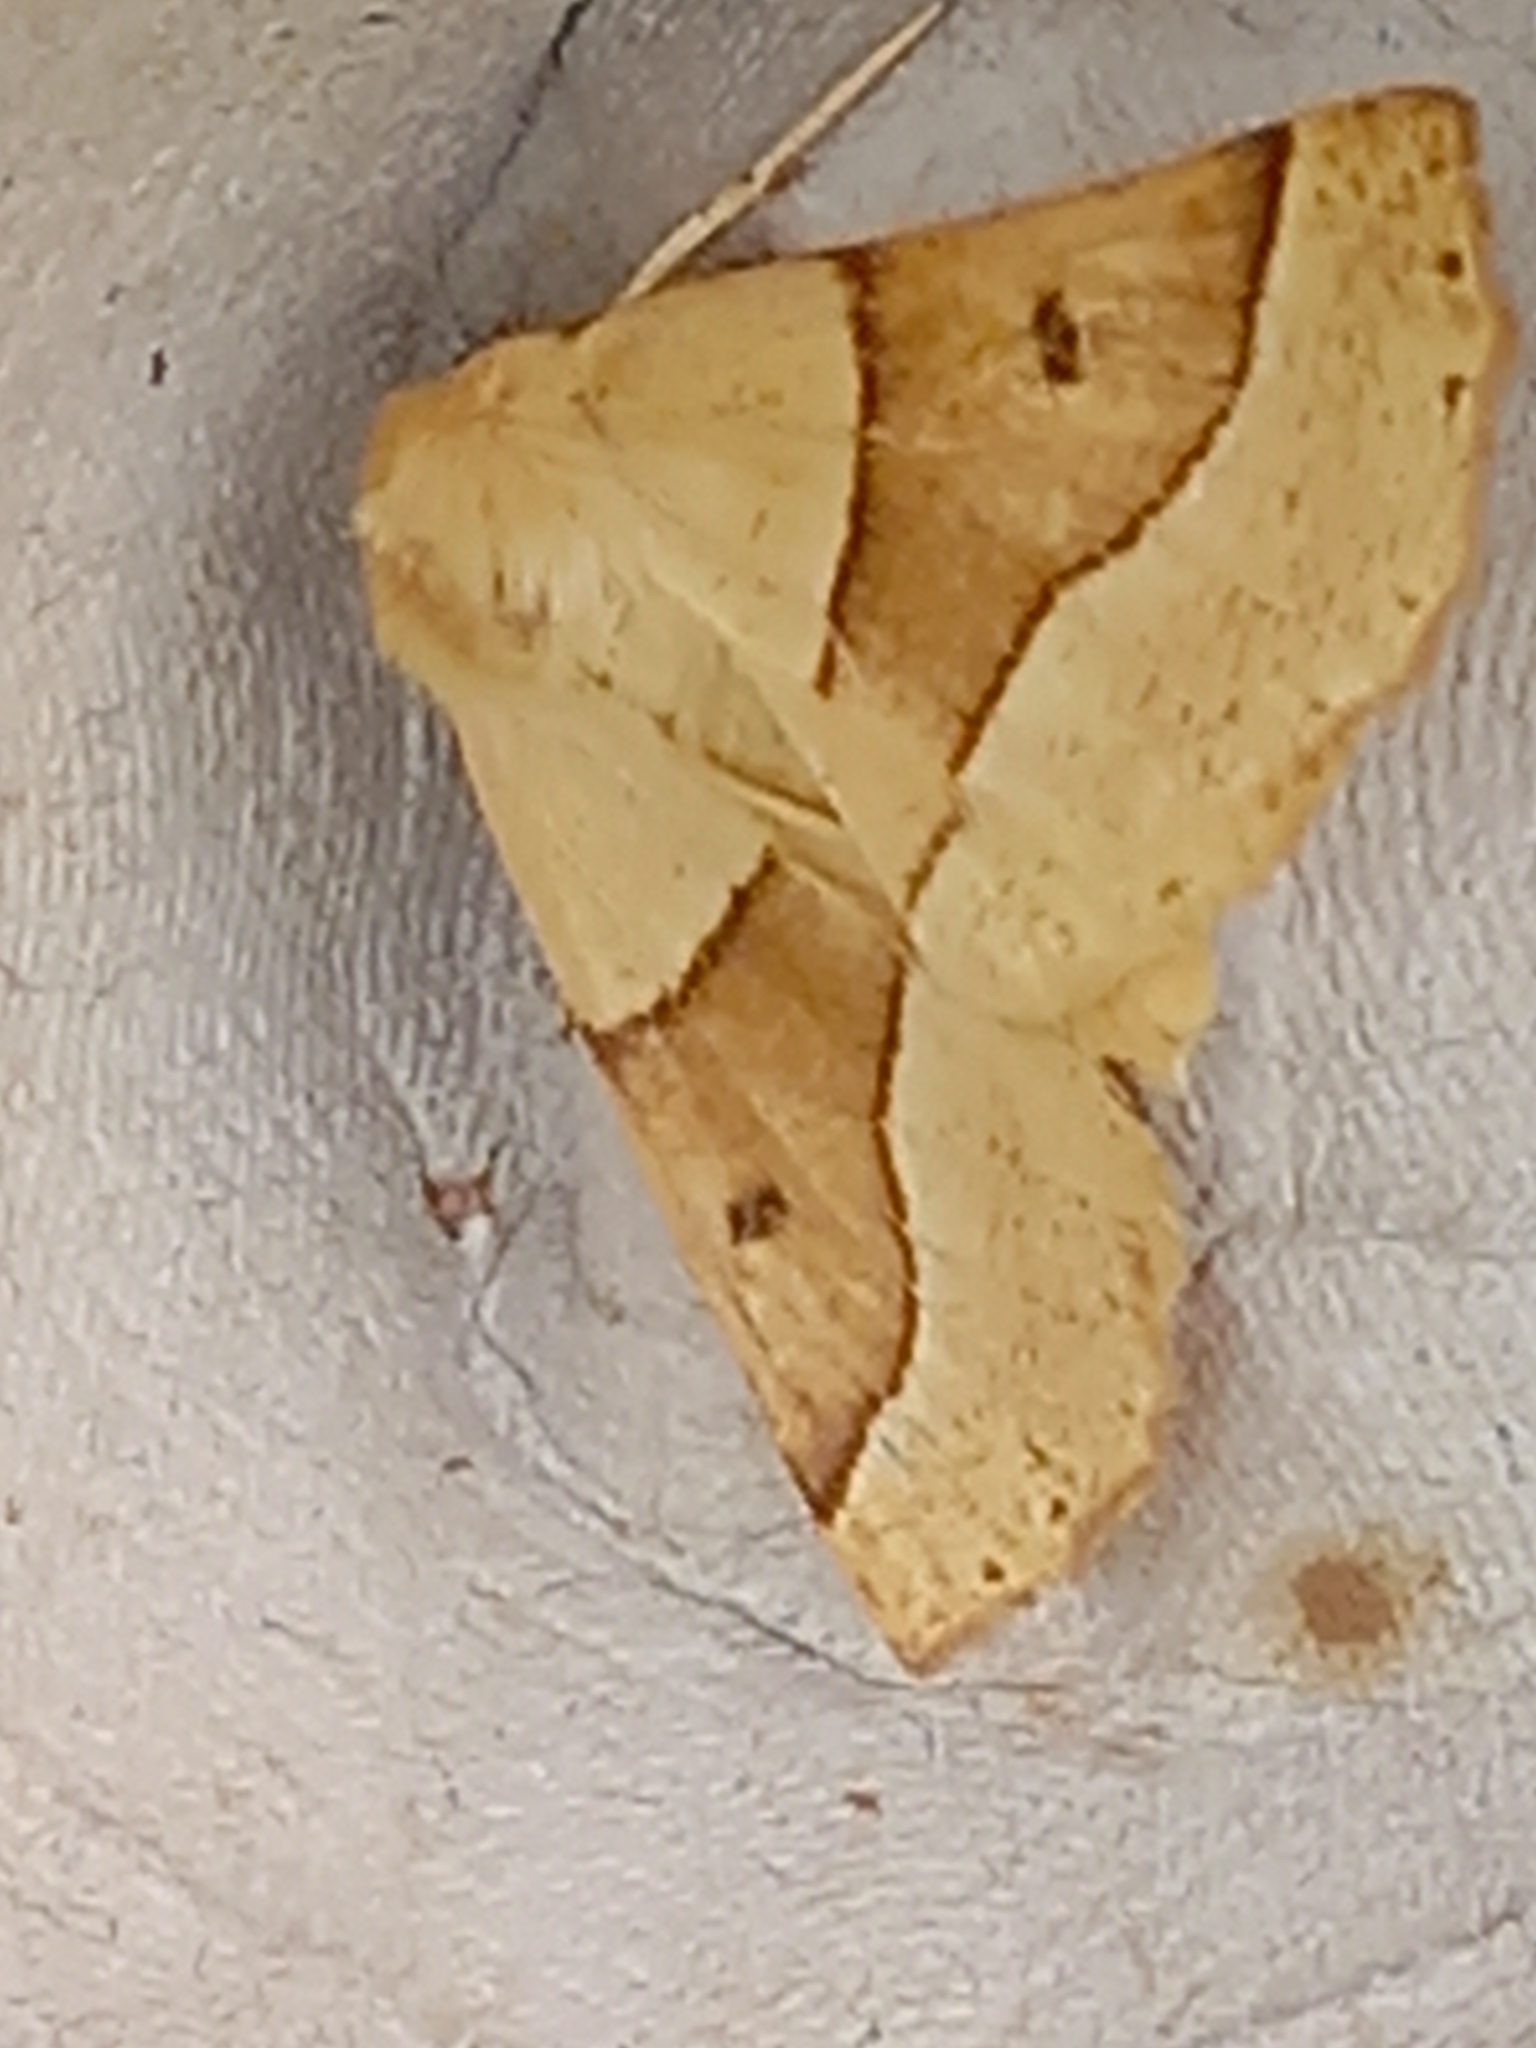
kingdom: Animalia
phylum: Arthropoda
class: Insecta
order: Lepidoptera
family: Geometridae
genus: Crocallis
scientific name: Crocallis elinguaria
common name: Scalloped oak
